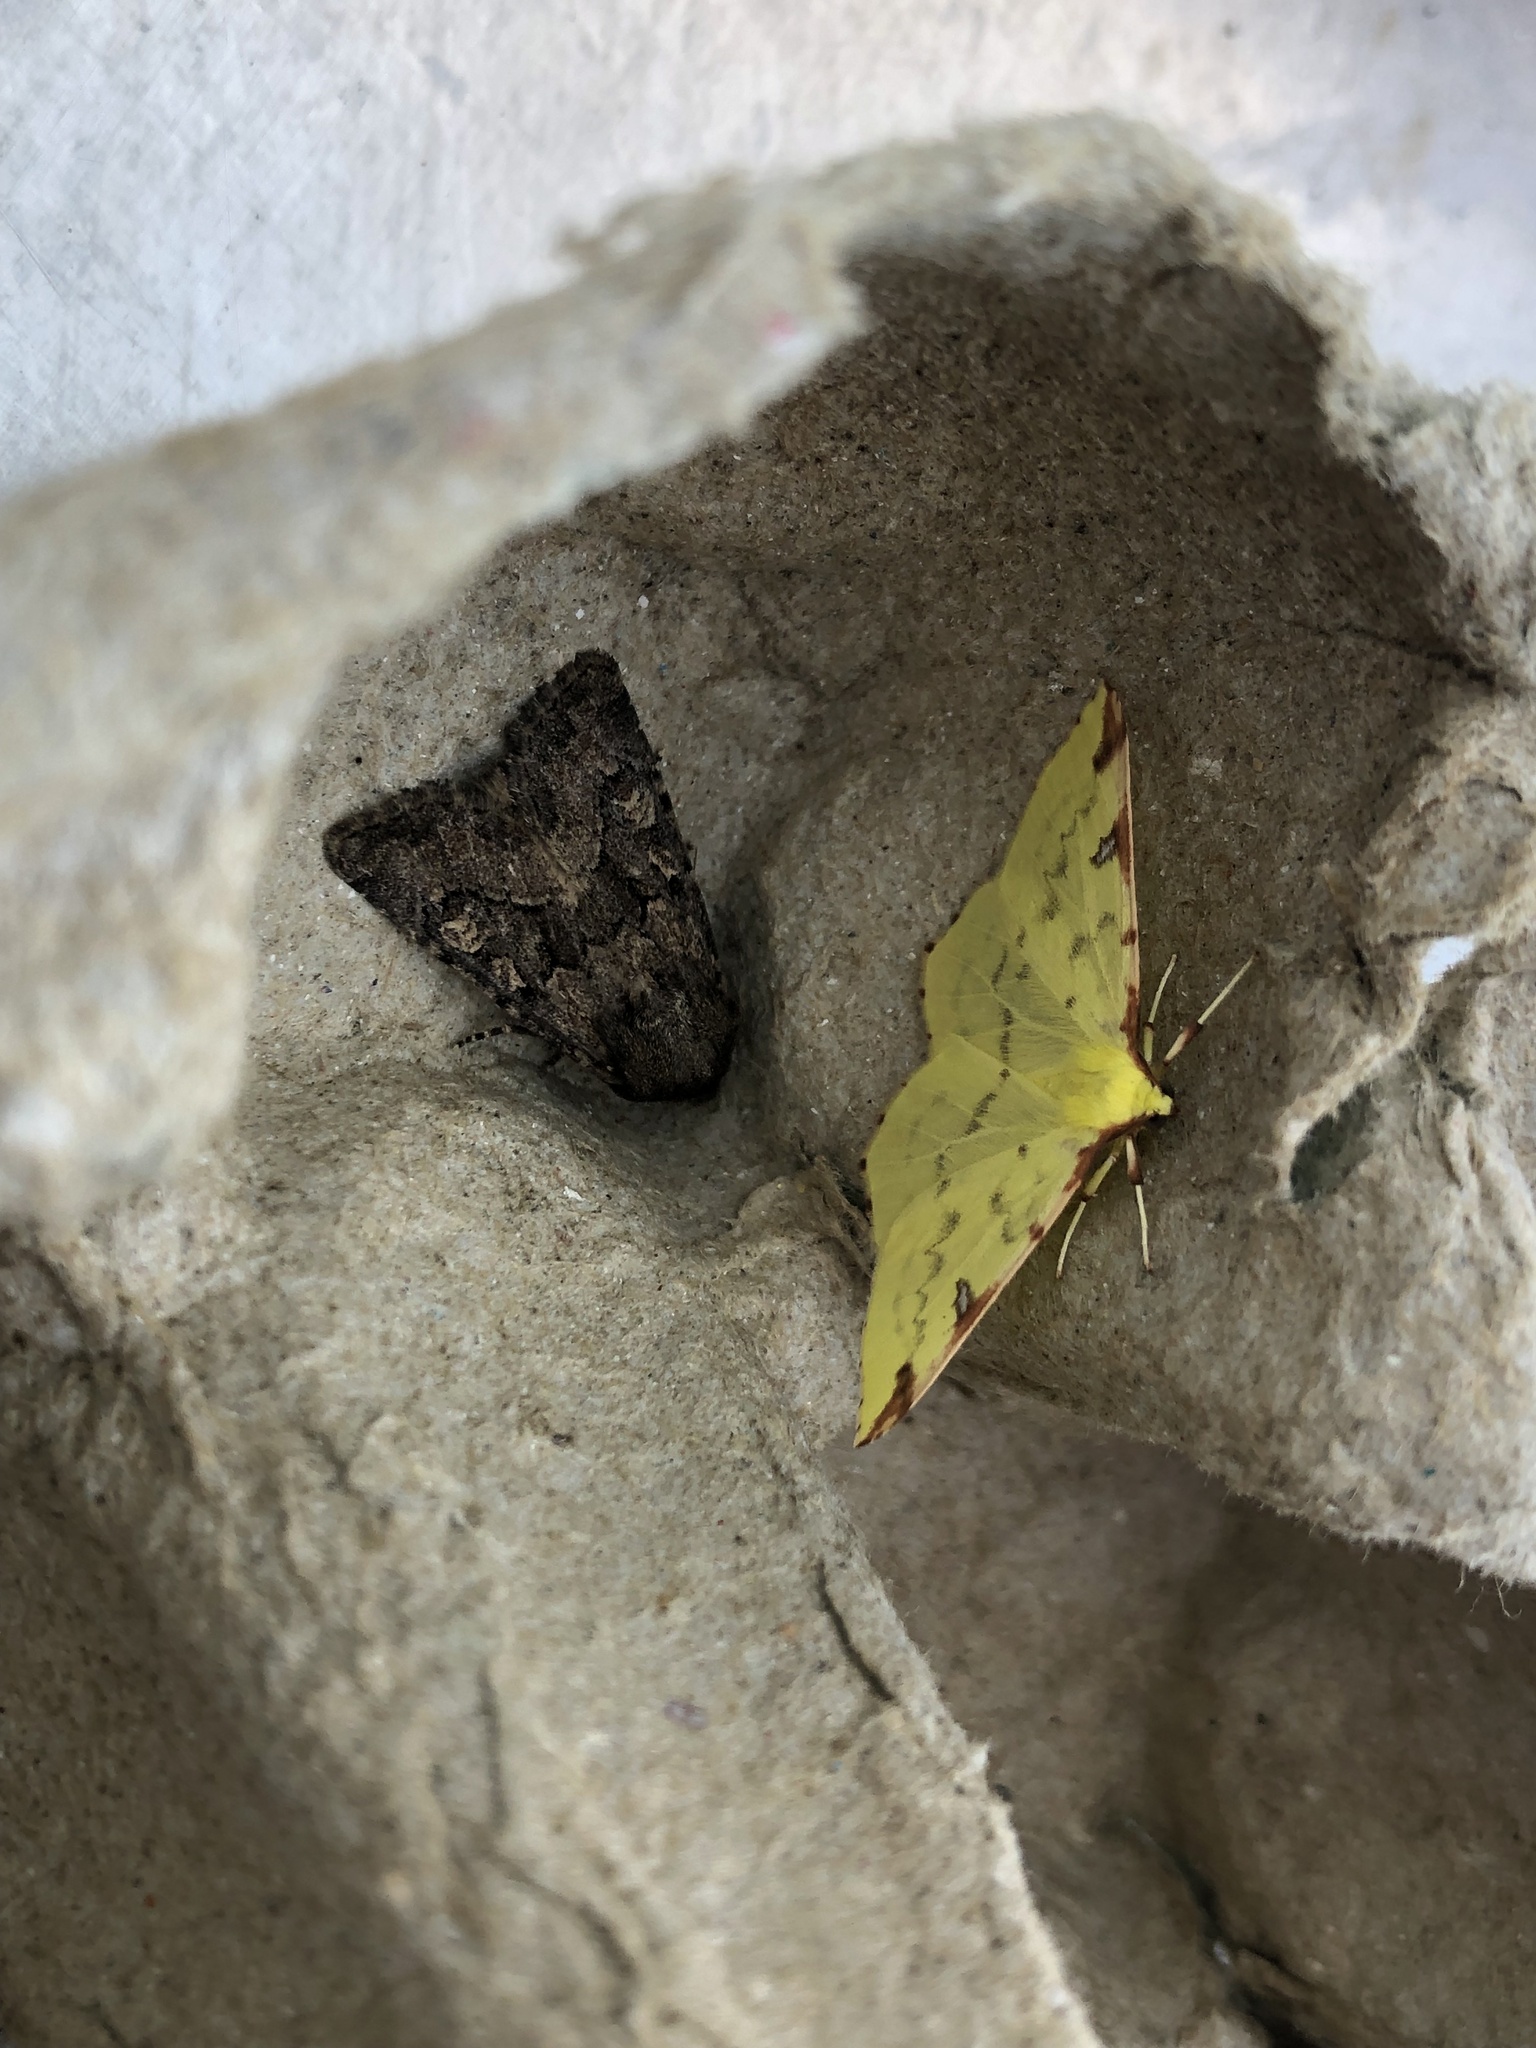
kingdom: Animalia
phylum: Arthropoda
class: Insecta
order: Lepidoptera
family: Geometridae
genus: Opisthograptis
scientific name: Opisthograptis luteolata
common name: Brimstone moth
